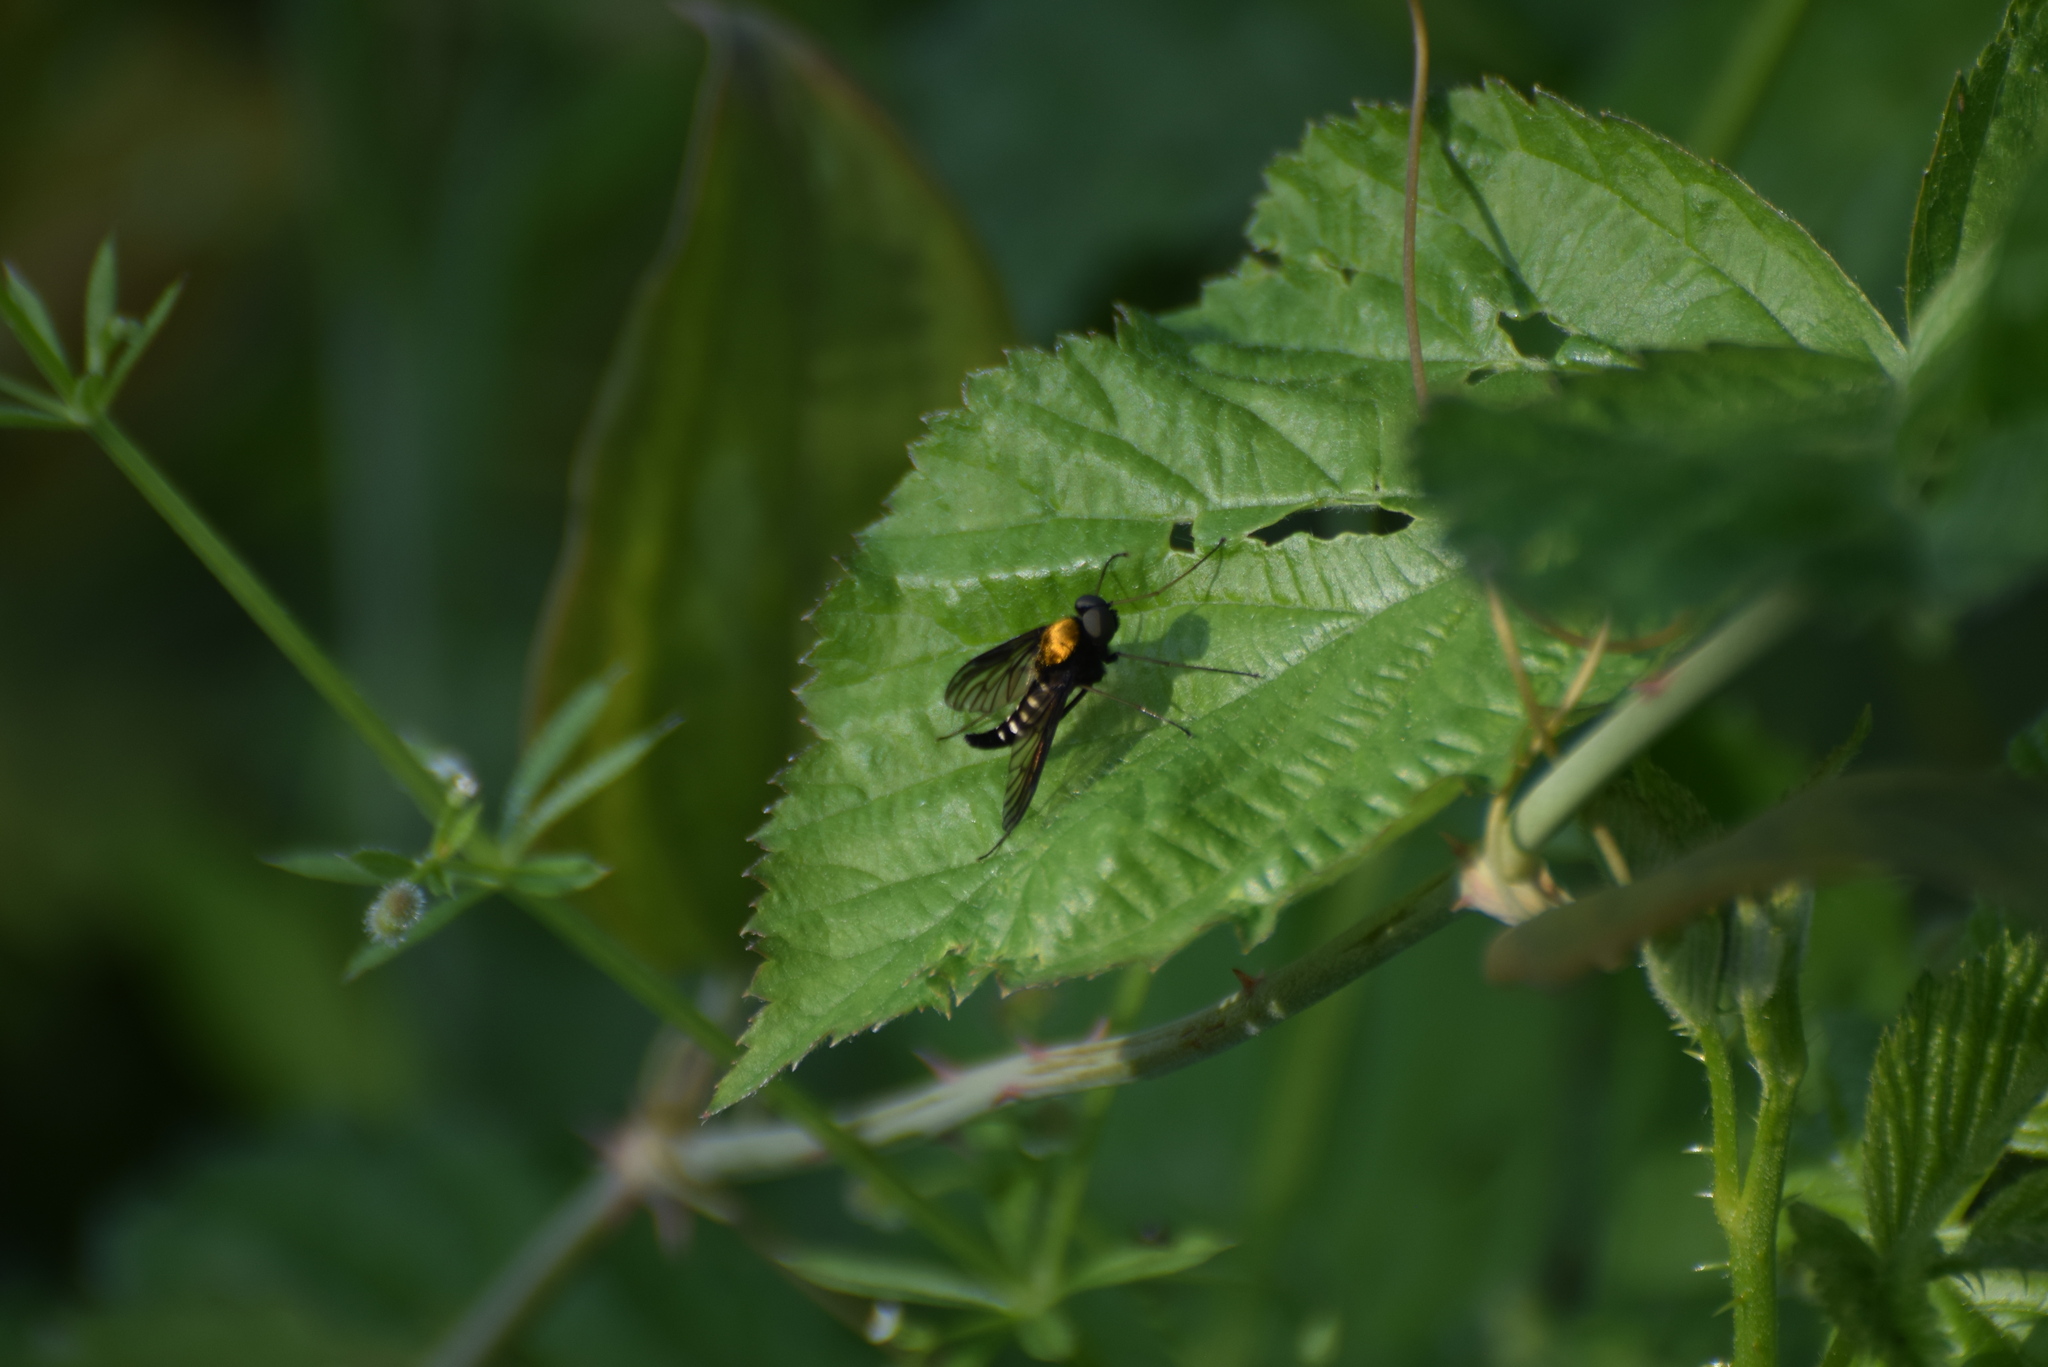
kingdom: Animalia
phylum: Arthropoda
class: Insecta
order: Diptera
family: Rhagionidae
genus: Chrysopilus
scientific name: Chrysopilus thoracicus
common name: Golden-backed snipe fly
